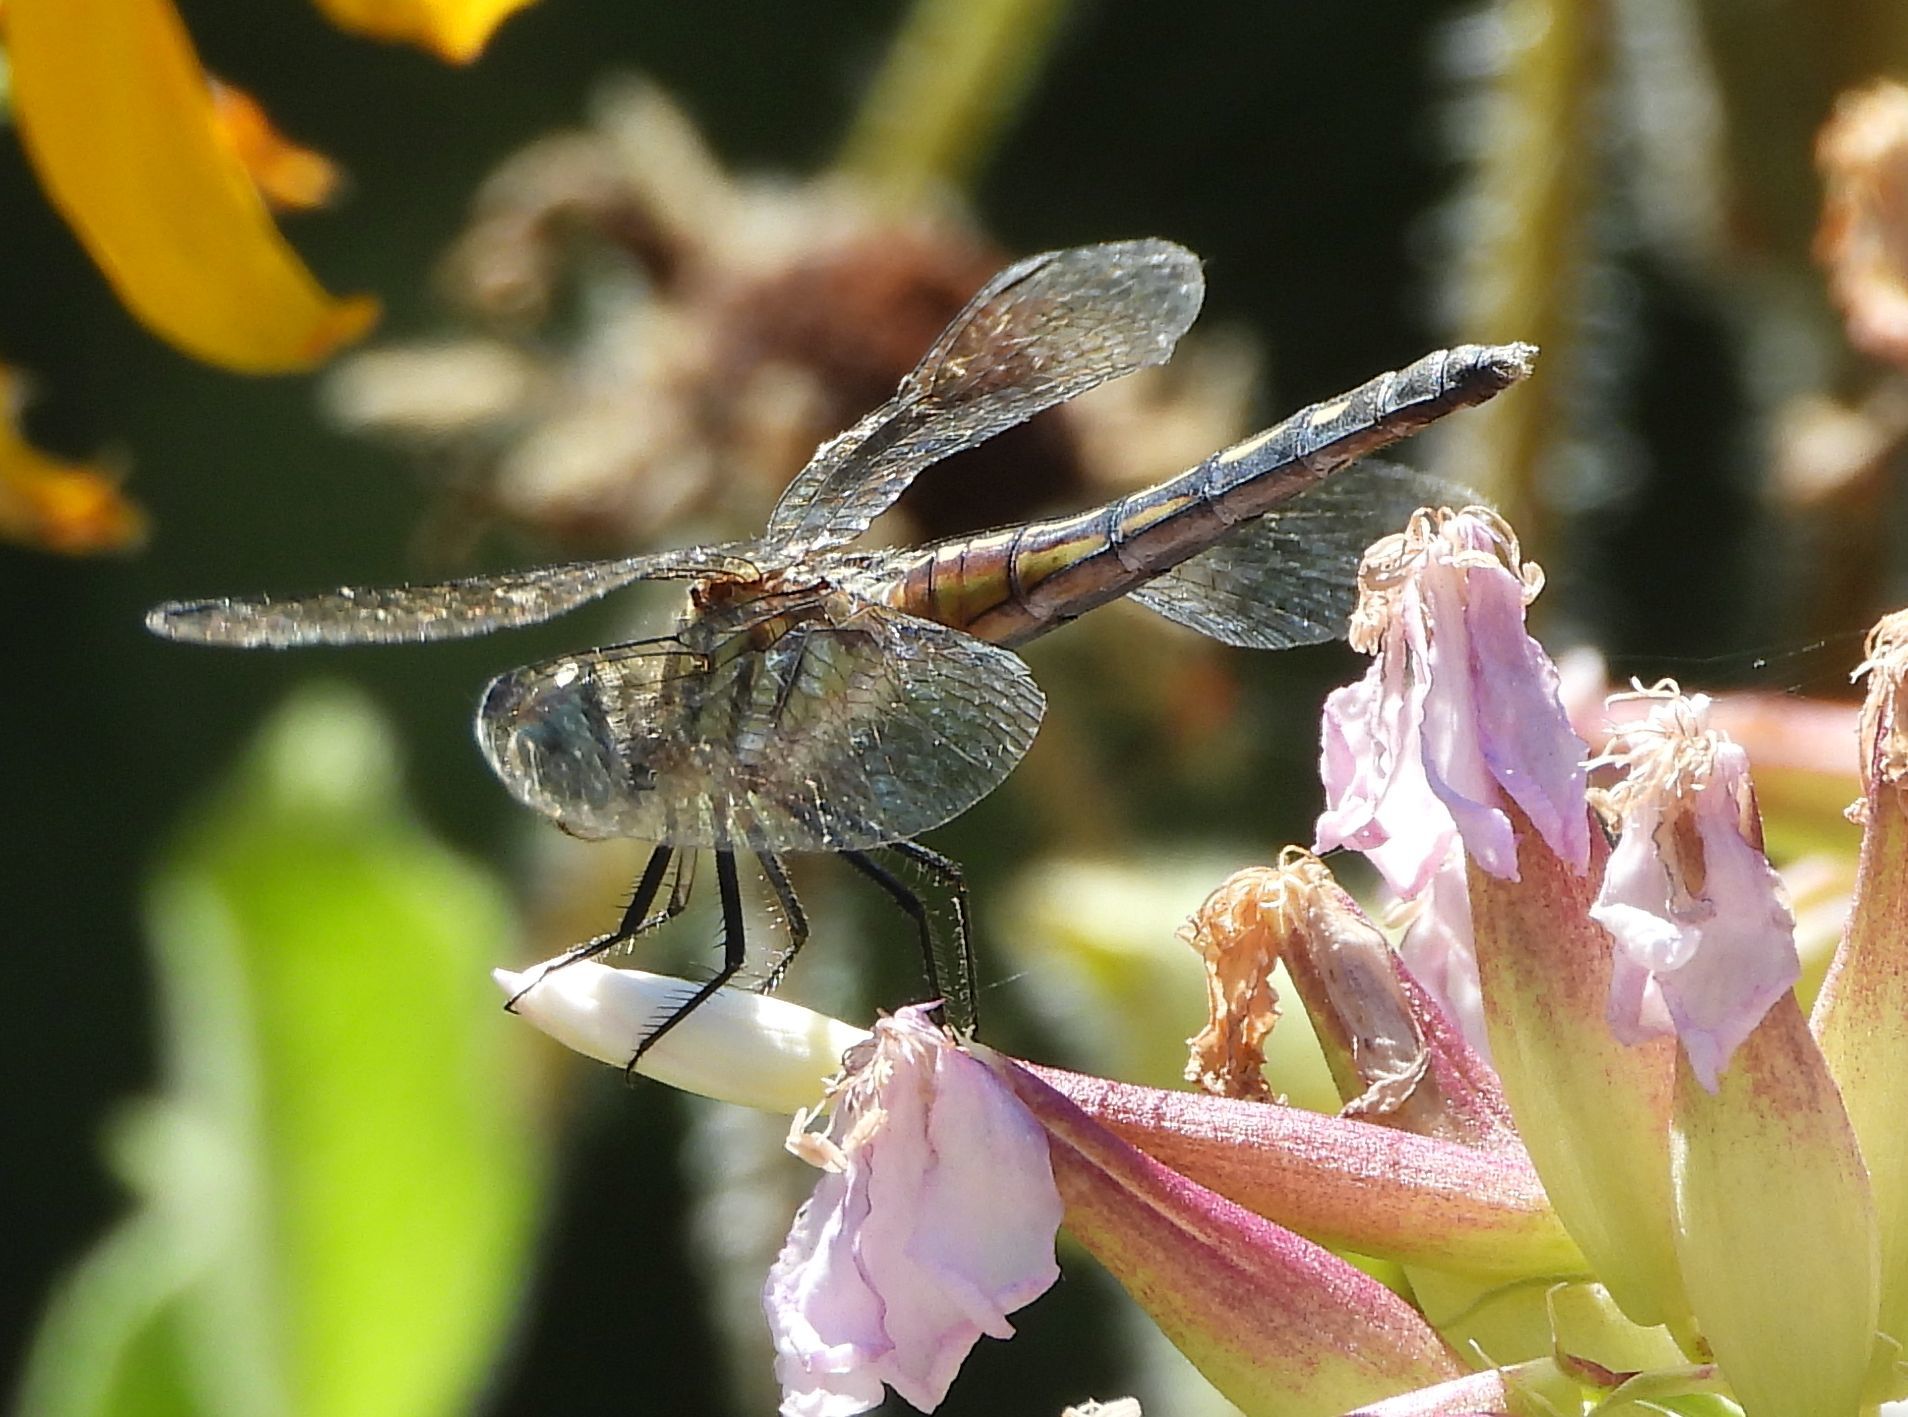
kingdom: Animalia
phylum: Arthropoda
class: Insecta
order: Odonata
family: Libellulidae
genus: Pachydiplax
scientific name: Pachydiplax longipennis
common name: Blue dasher
